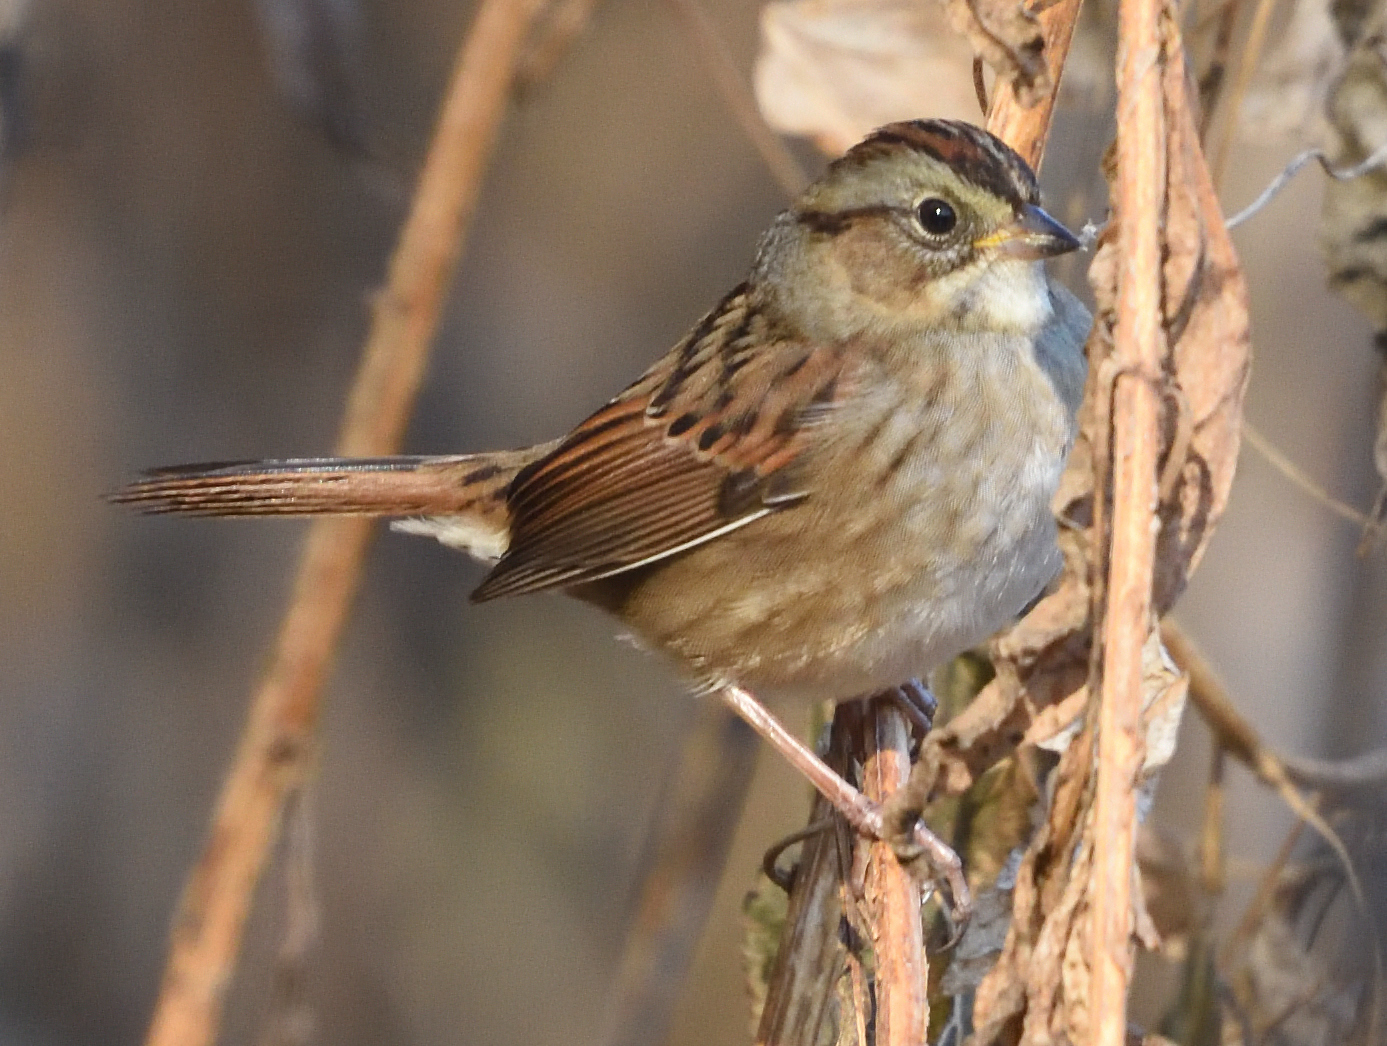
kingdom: Animalia
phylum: Chordata
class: Aves
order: Passeriformes
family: Passerellidae
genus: Melospiza
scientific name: Melospiza georgiana
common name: Swamp sparrow
